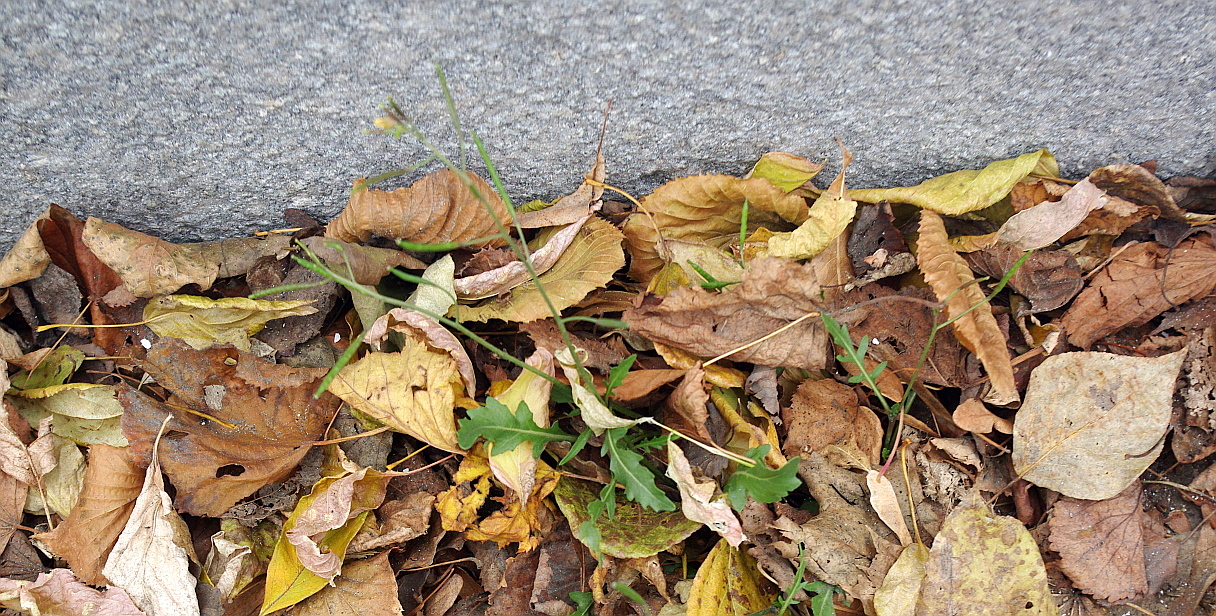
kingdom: Plantae
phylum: Tracheophyta
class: Magnoliopsida
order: Brassicales
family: Brassicaceae
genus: Diplotaxis
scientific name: Diplotaxis muralis
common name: Annual wall-rocket
